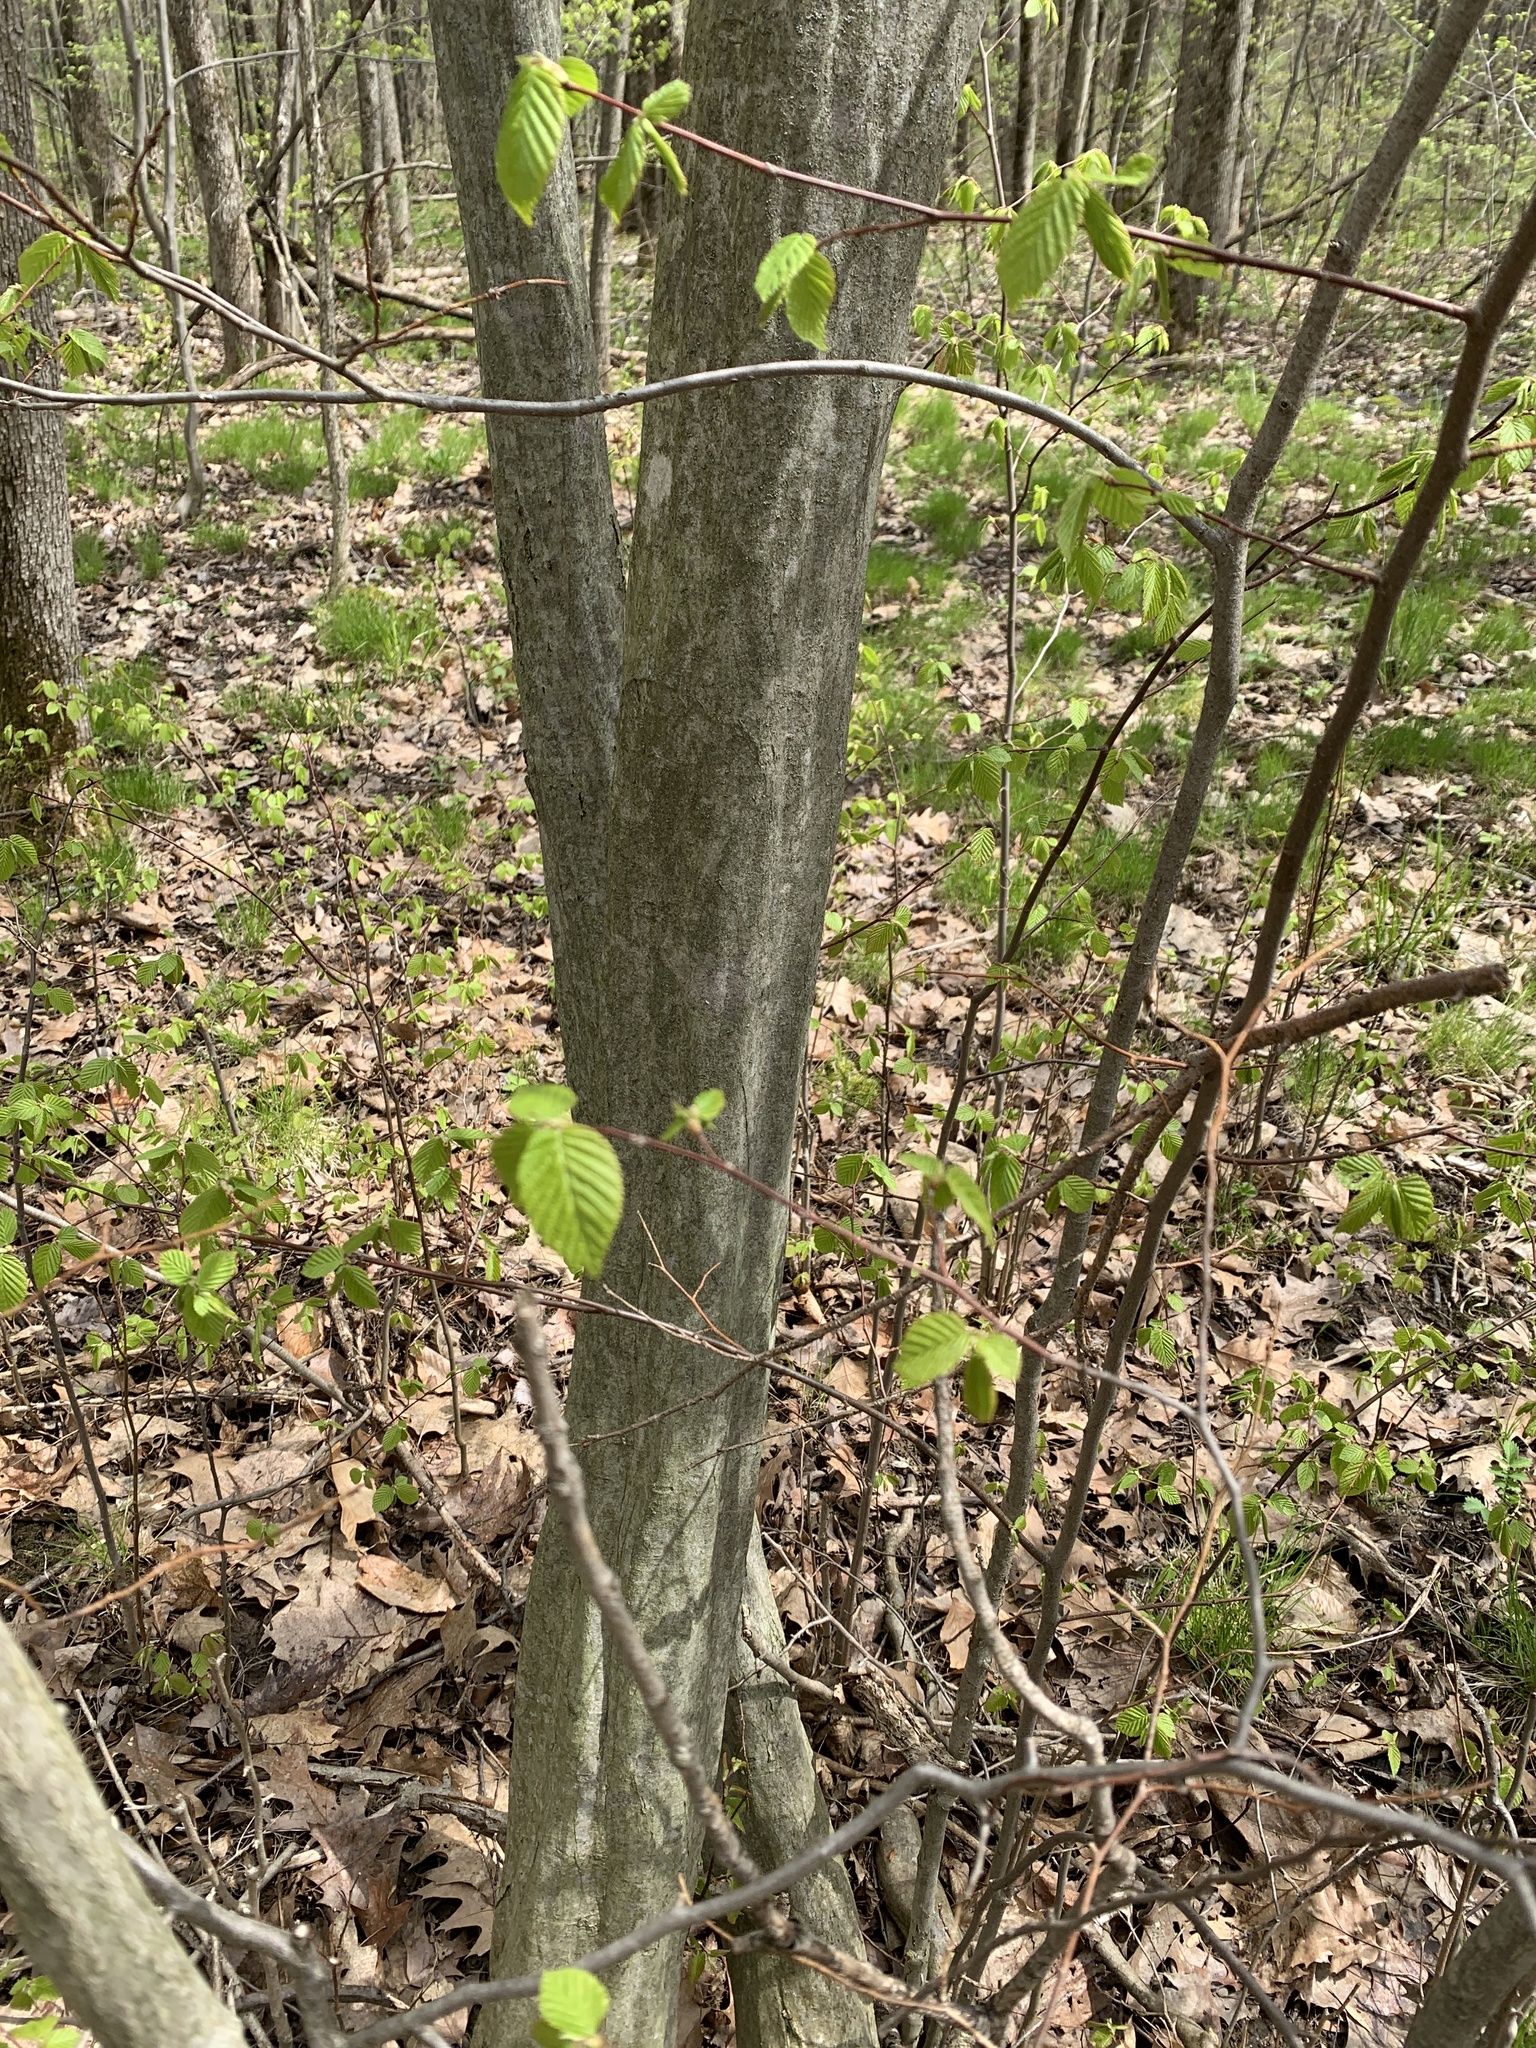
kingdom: Plantae
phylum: Tracheophyta
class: Magnoliopsida
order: Fagales
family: Betulaceae
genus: Carpinus
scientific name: Carpinus caroliniana
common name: American hornbeam
